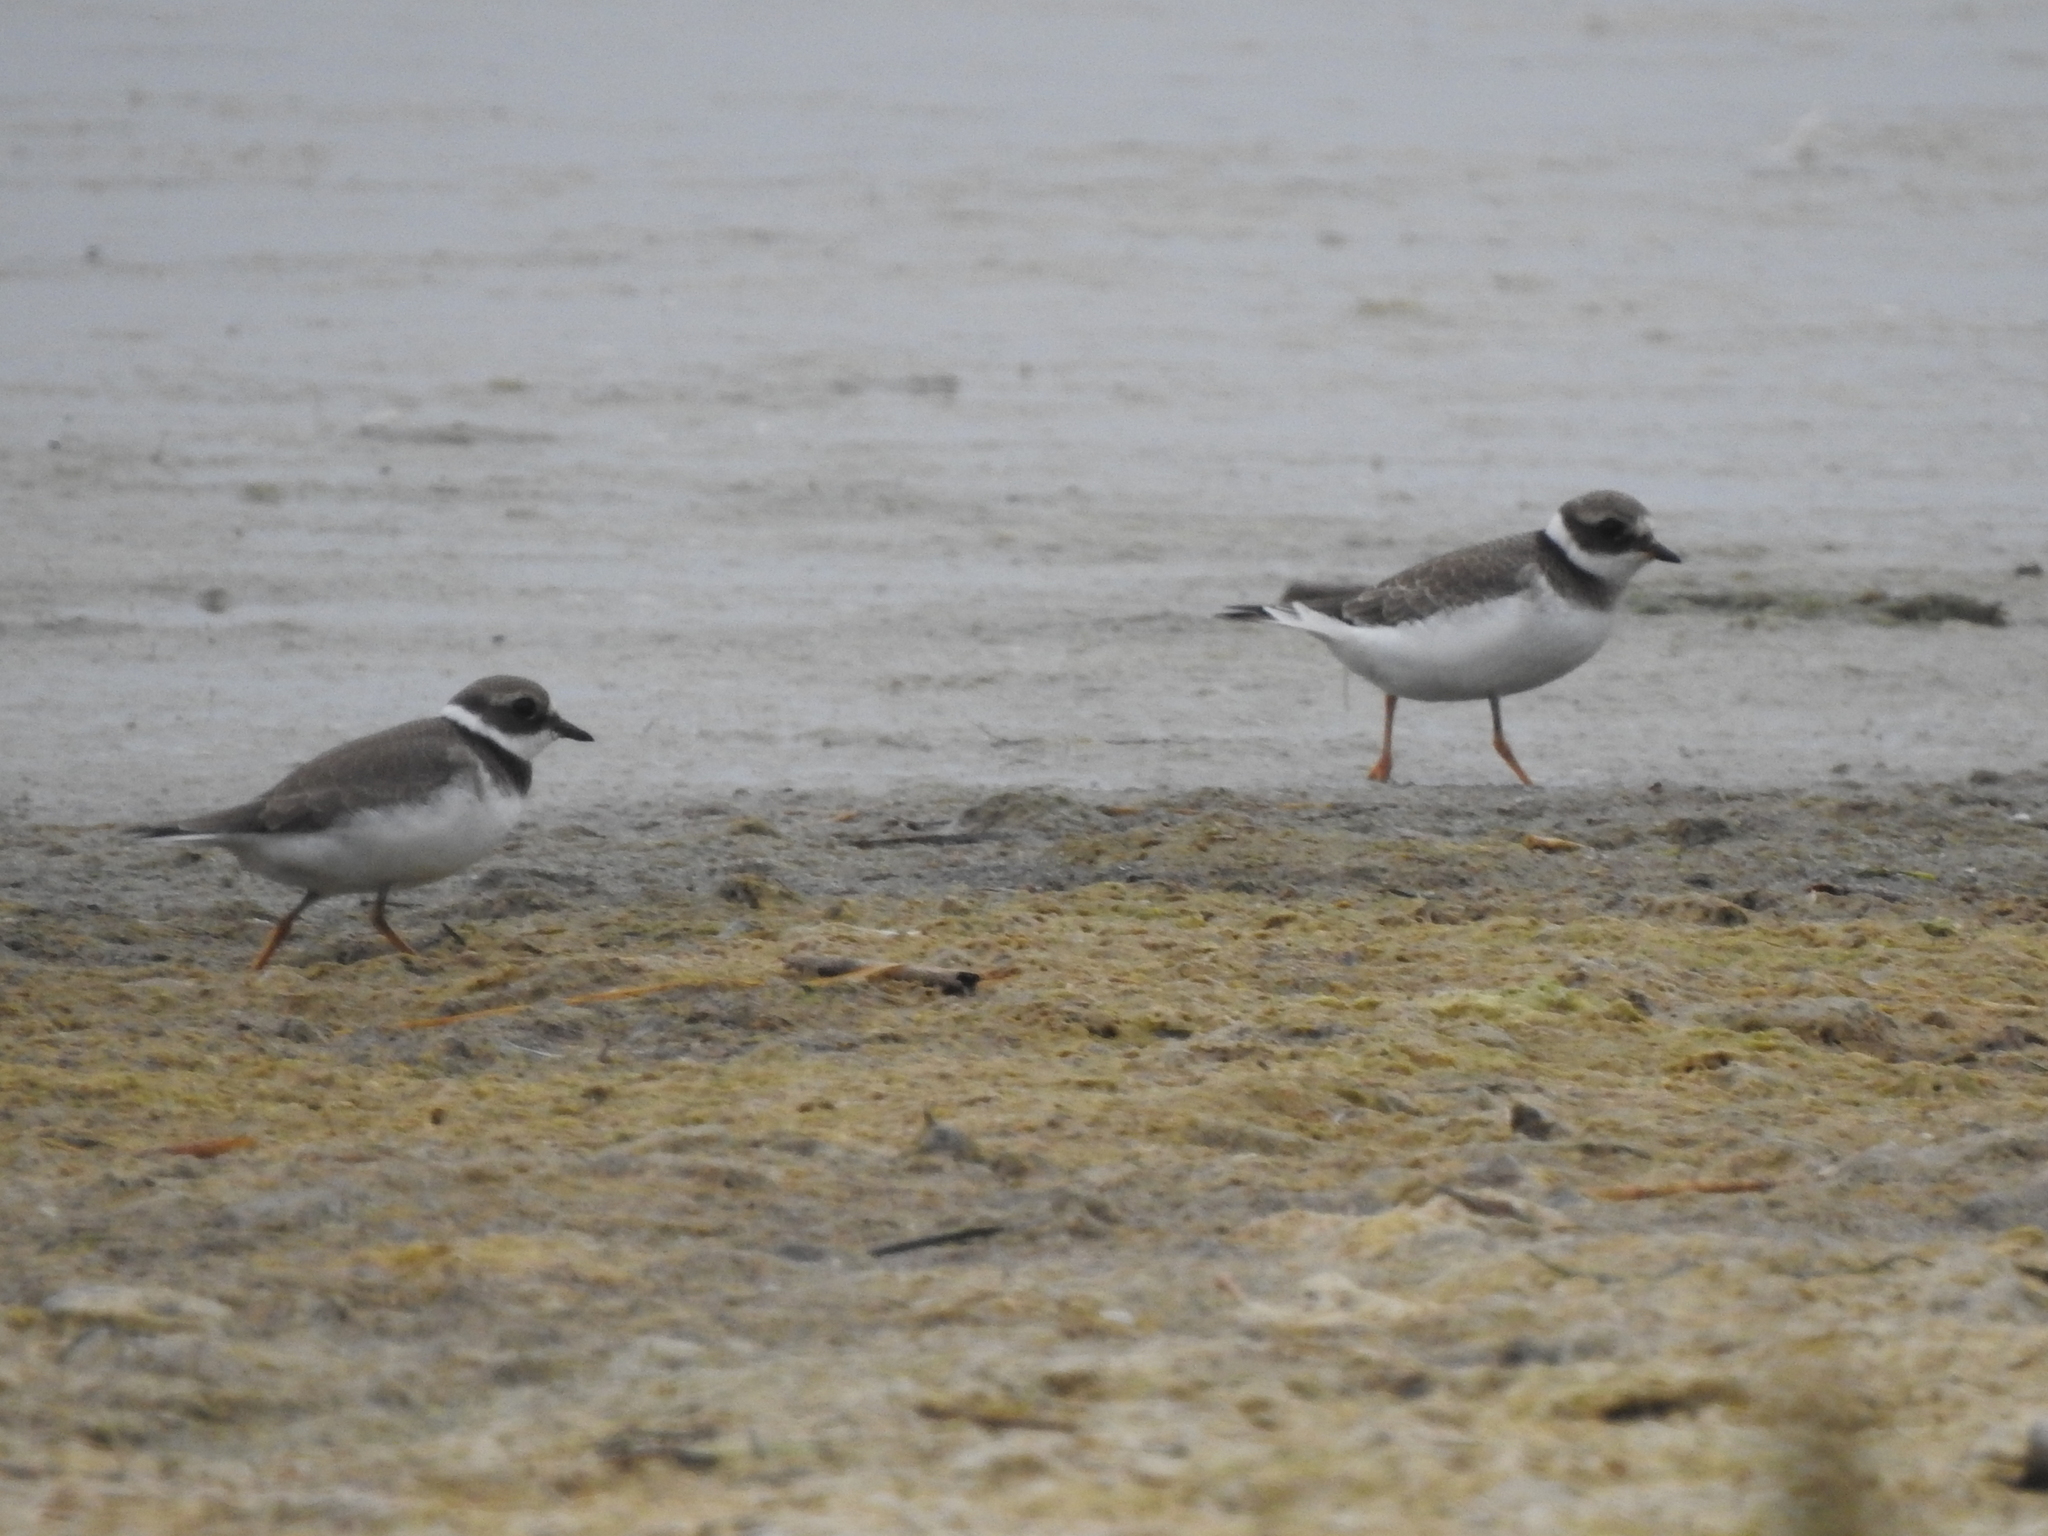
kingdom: Animalia
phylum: Chordata
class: Aves
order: Charadriiformes
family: Charadriidae
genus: Charadrius
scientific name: Charadrius hiaticula
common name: Common ringed plover
